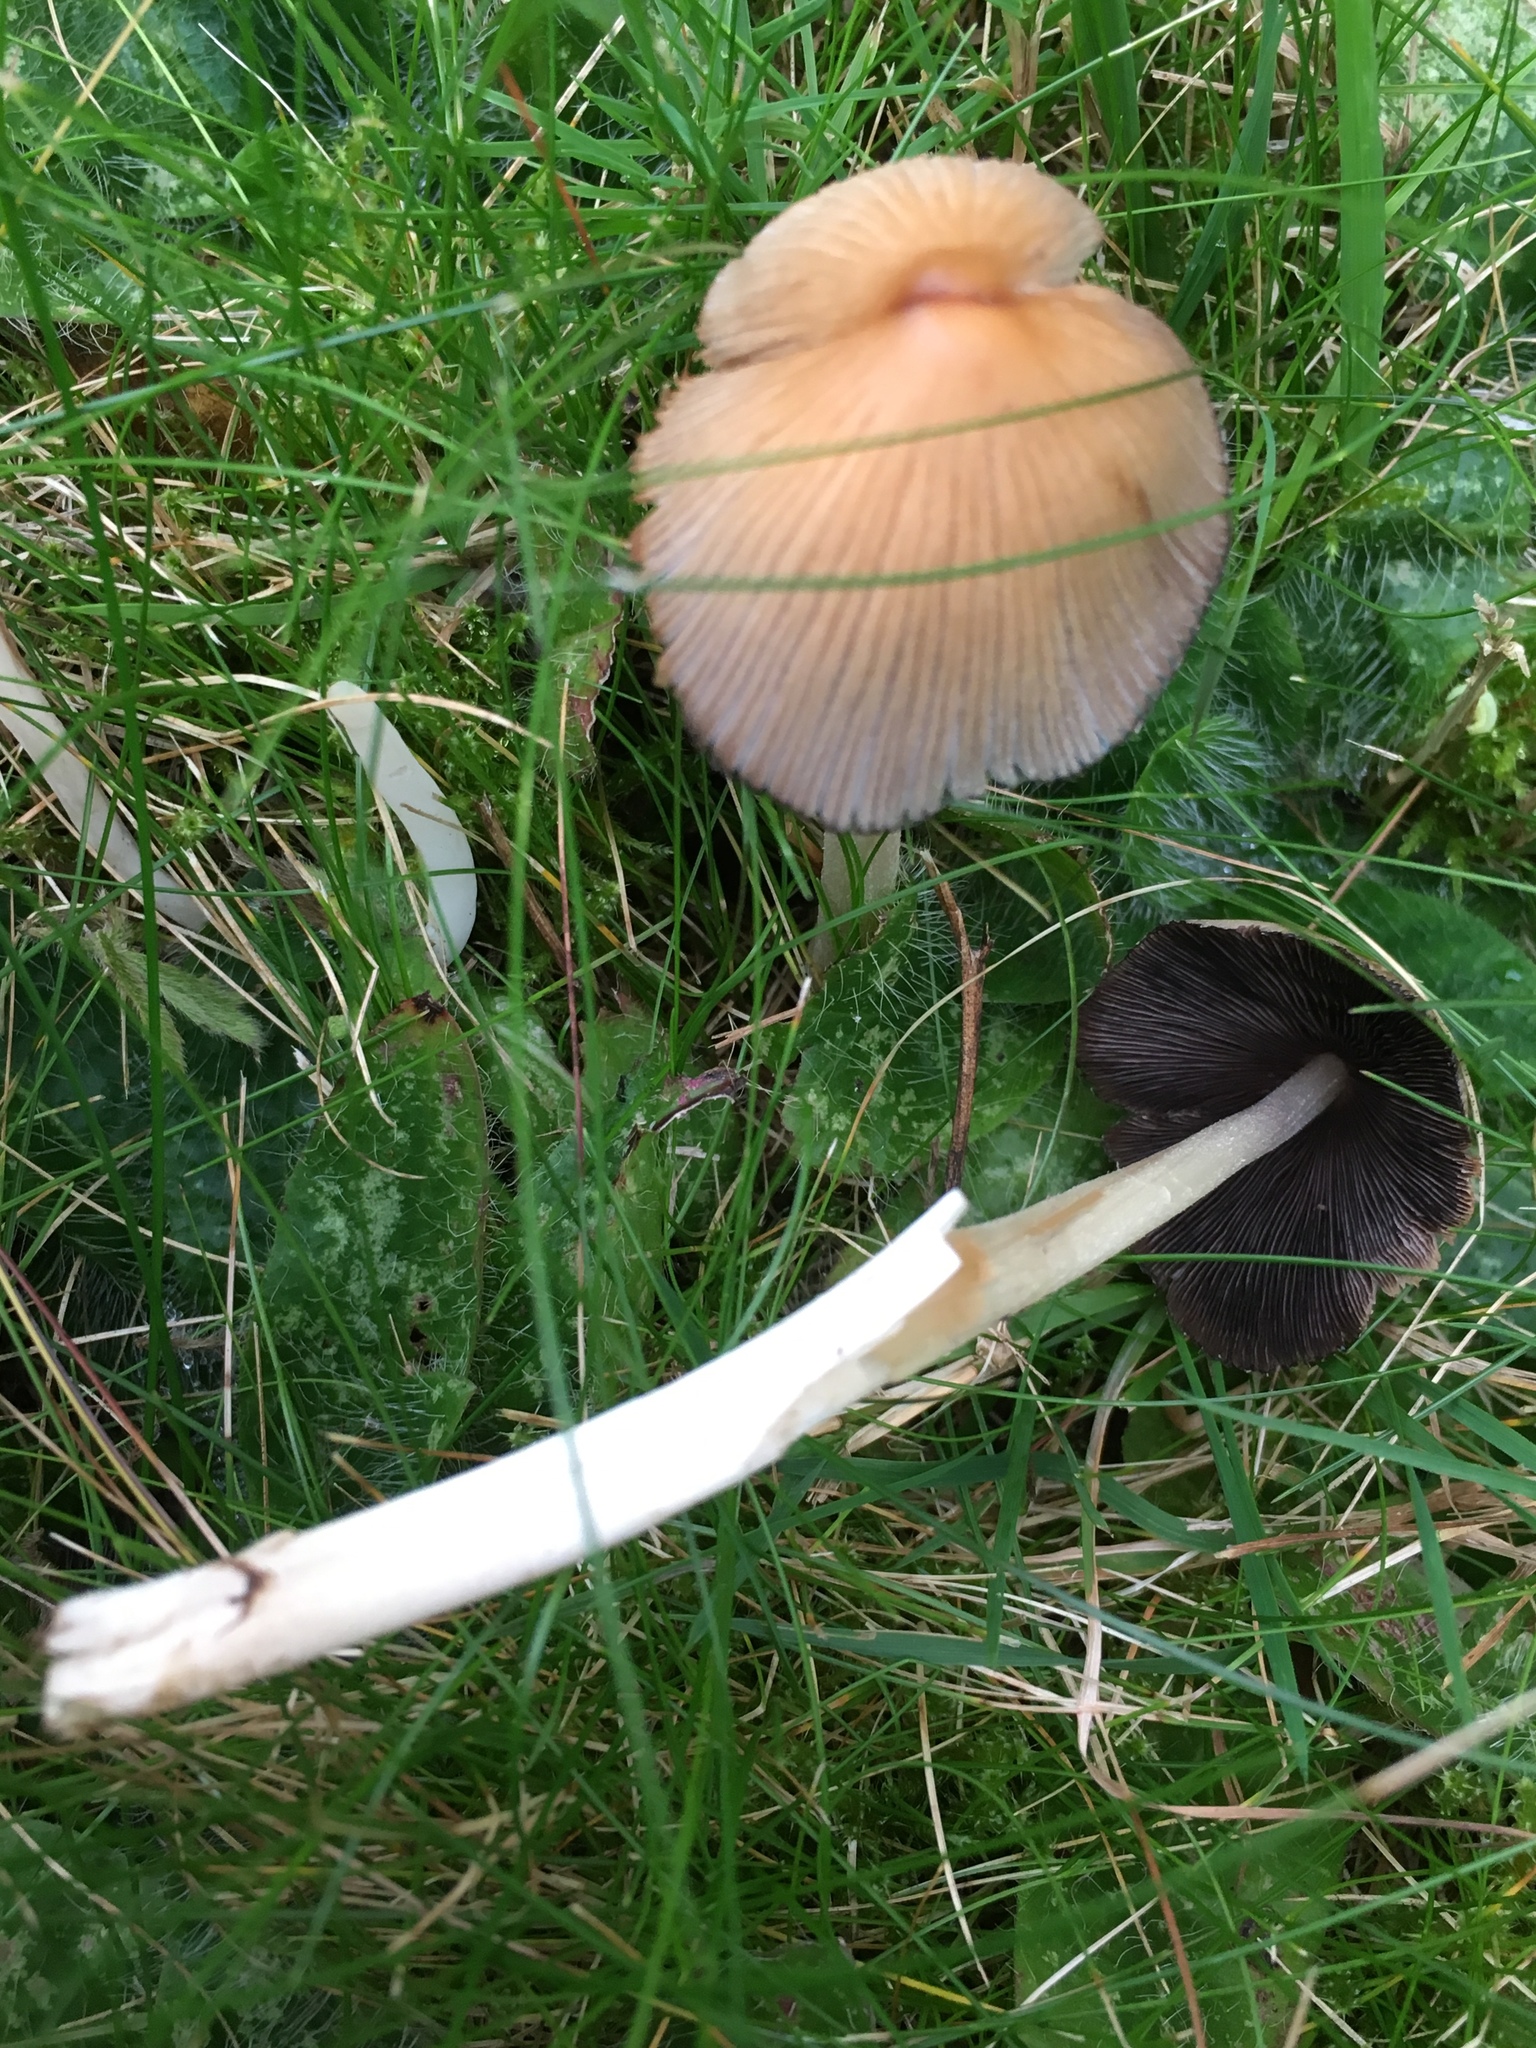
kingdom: Fungi
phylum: Basidiomycota
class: Agaricomycetes
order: Agaricales
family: Psathyrellaceae
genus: Coprinellus
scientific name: Coprinellus micaceus
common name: Glistening ink-cap
